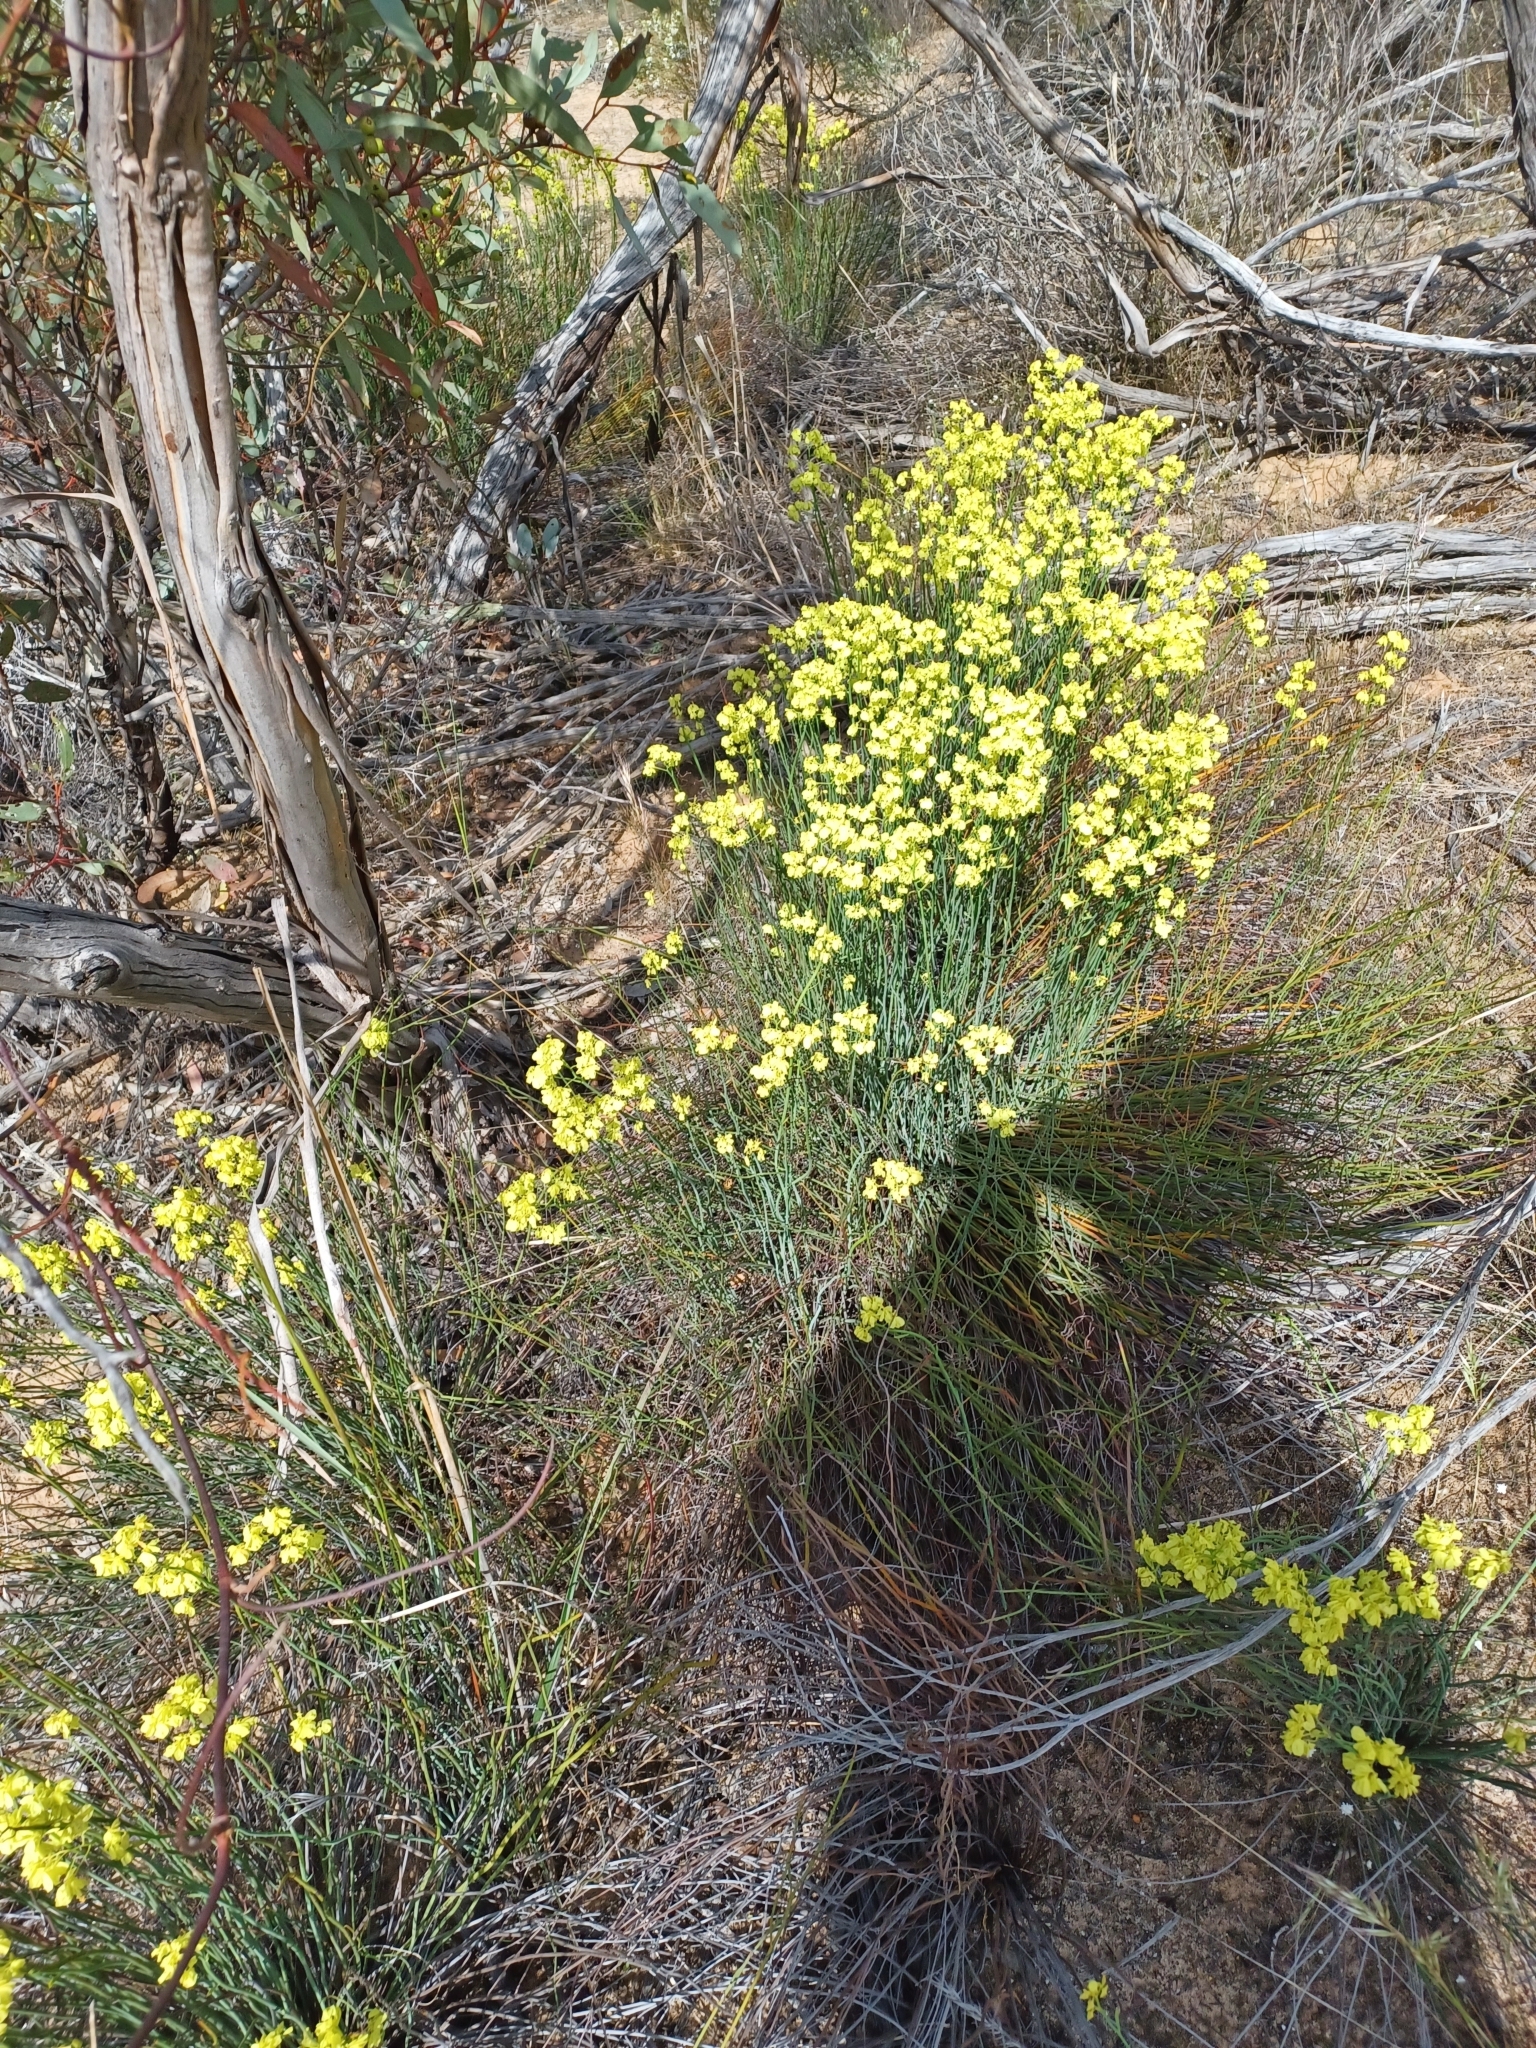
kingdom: Plantae
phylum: Tracheophyta
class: Magnoliopsida
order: Saxifragales
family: Haloragaceae
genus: Glischrocaryon
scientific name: Glischrocaryon behrii
